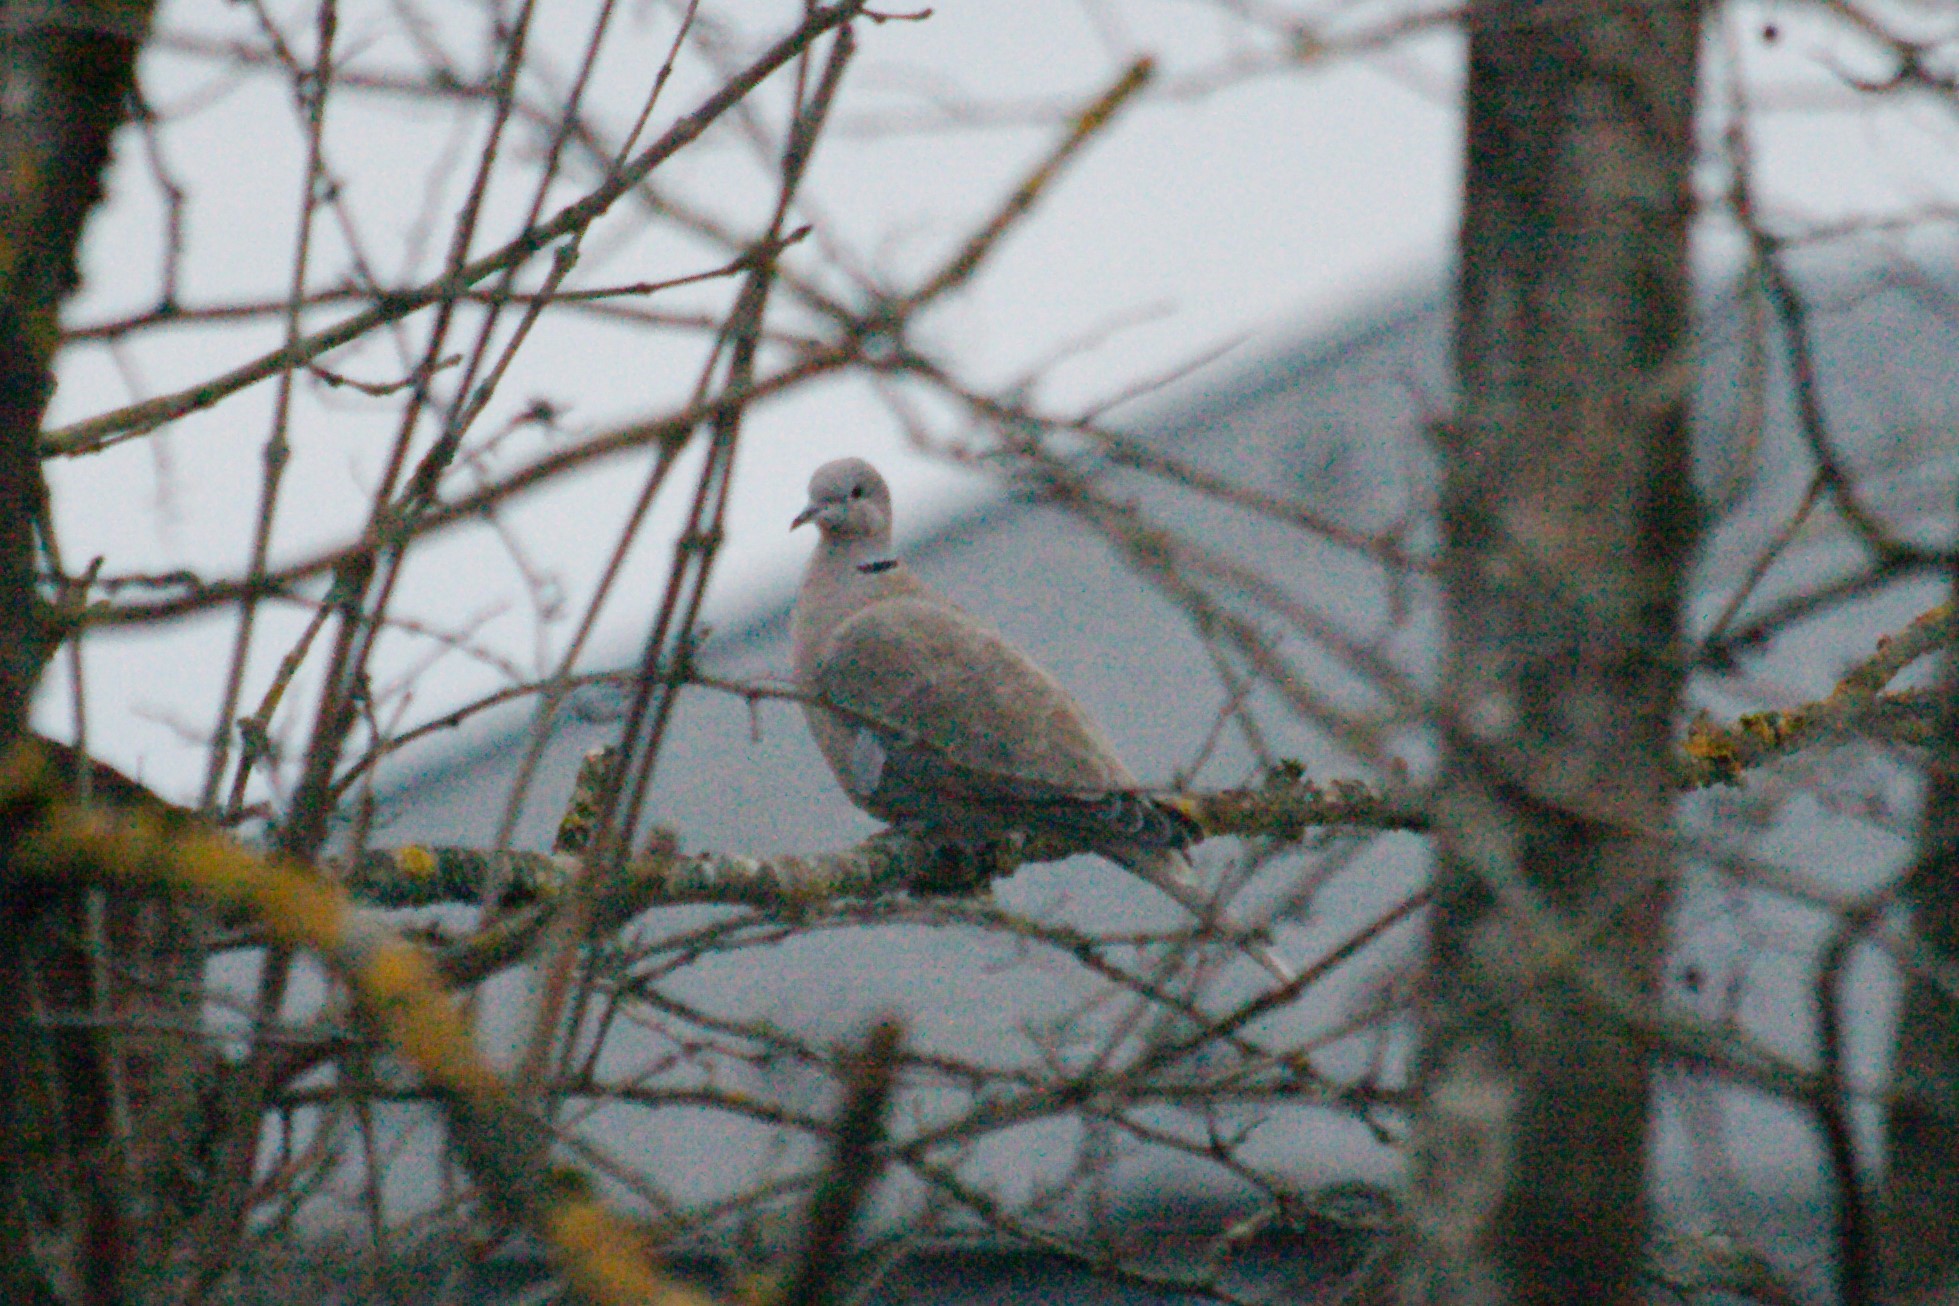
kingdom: Animalia
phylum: Chordata
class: Aves
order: Columbiformes
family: Columbidae
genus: Streptopelia
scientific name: Streptopelia decaocto
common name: Eurasian collared dove
